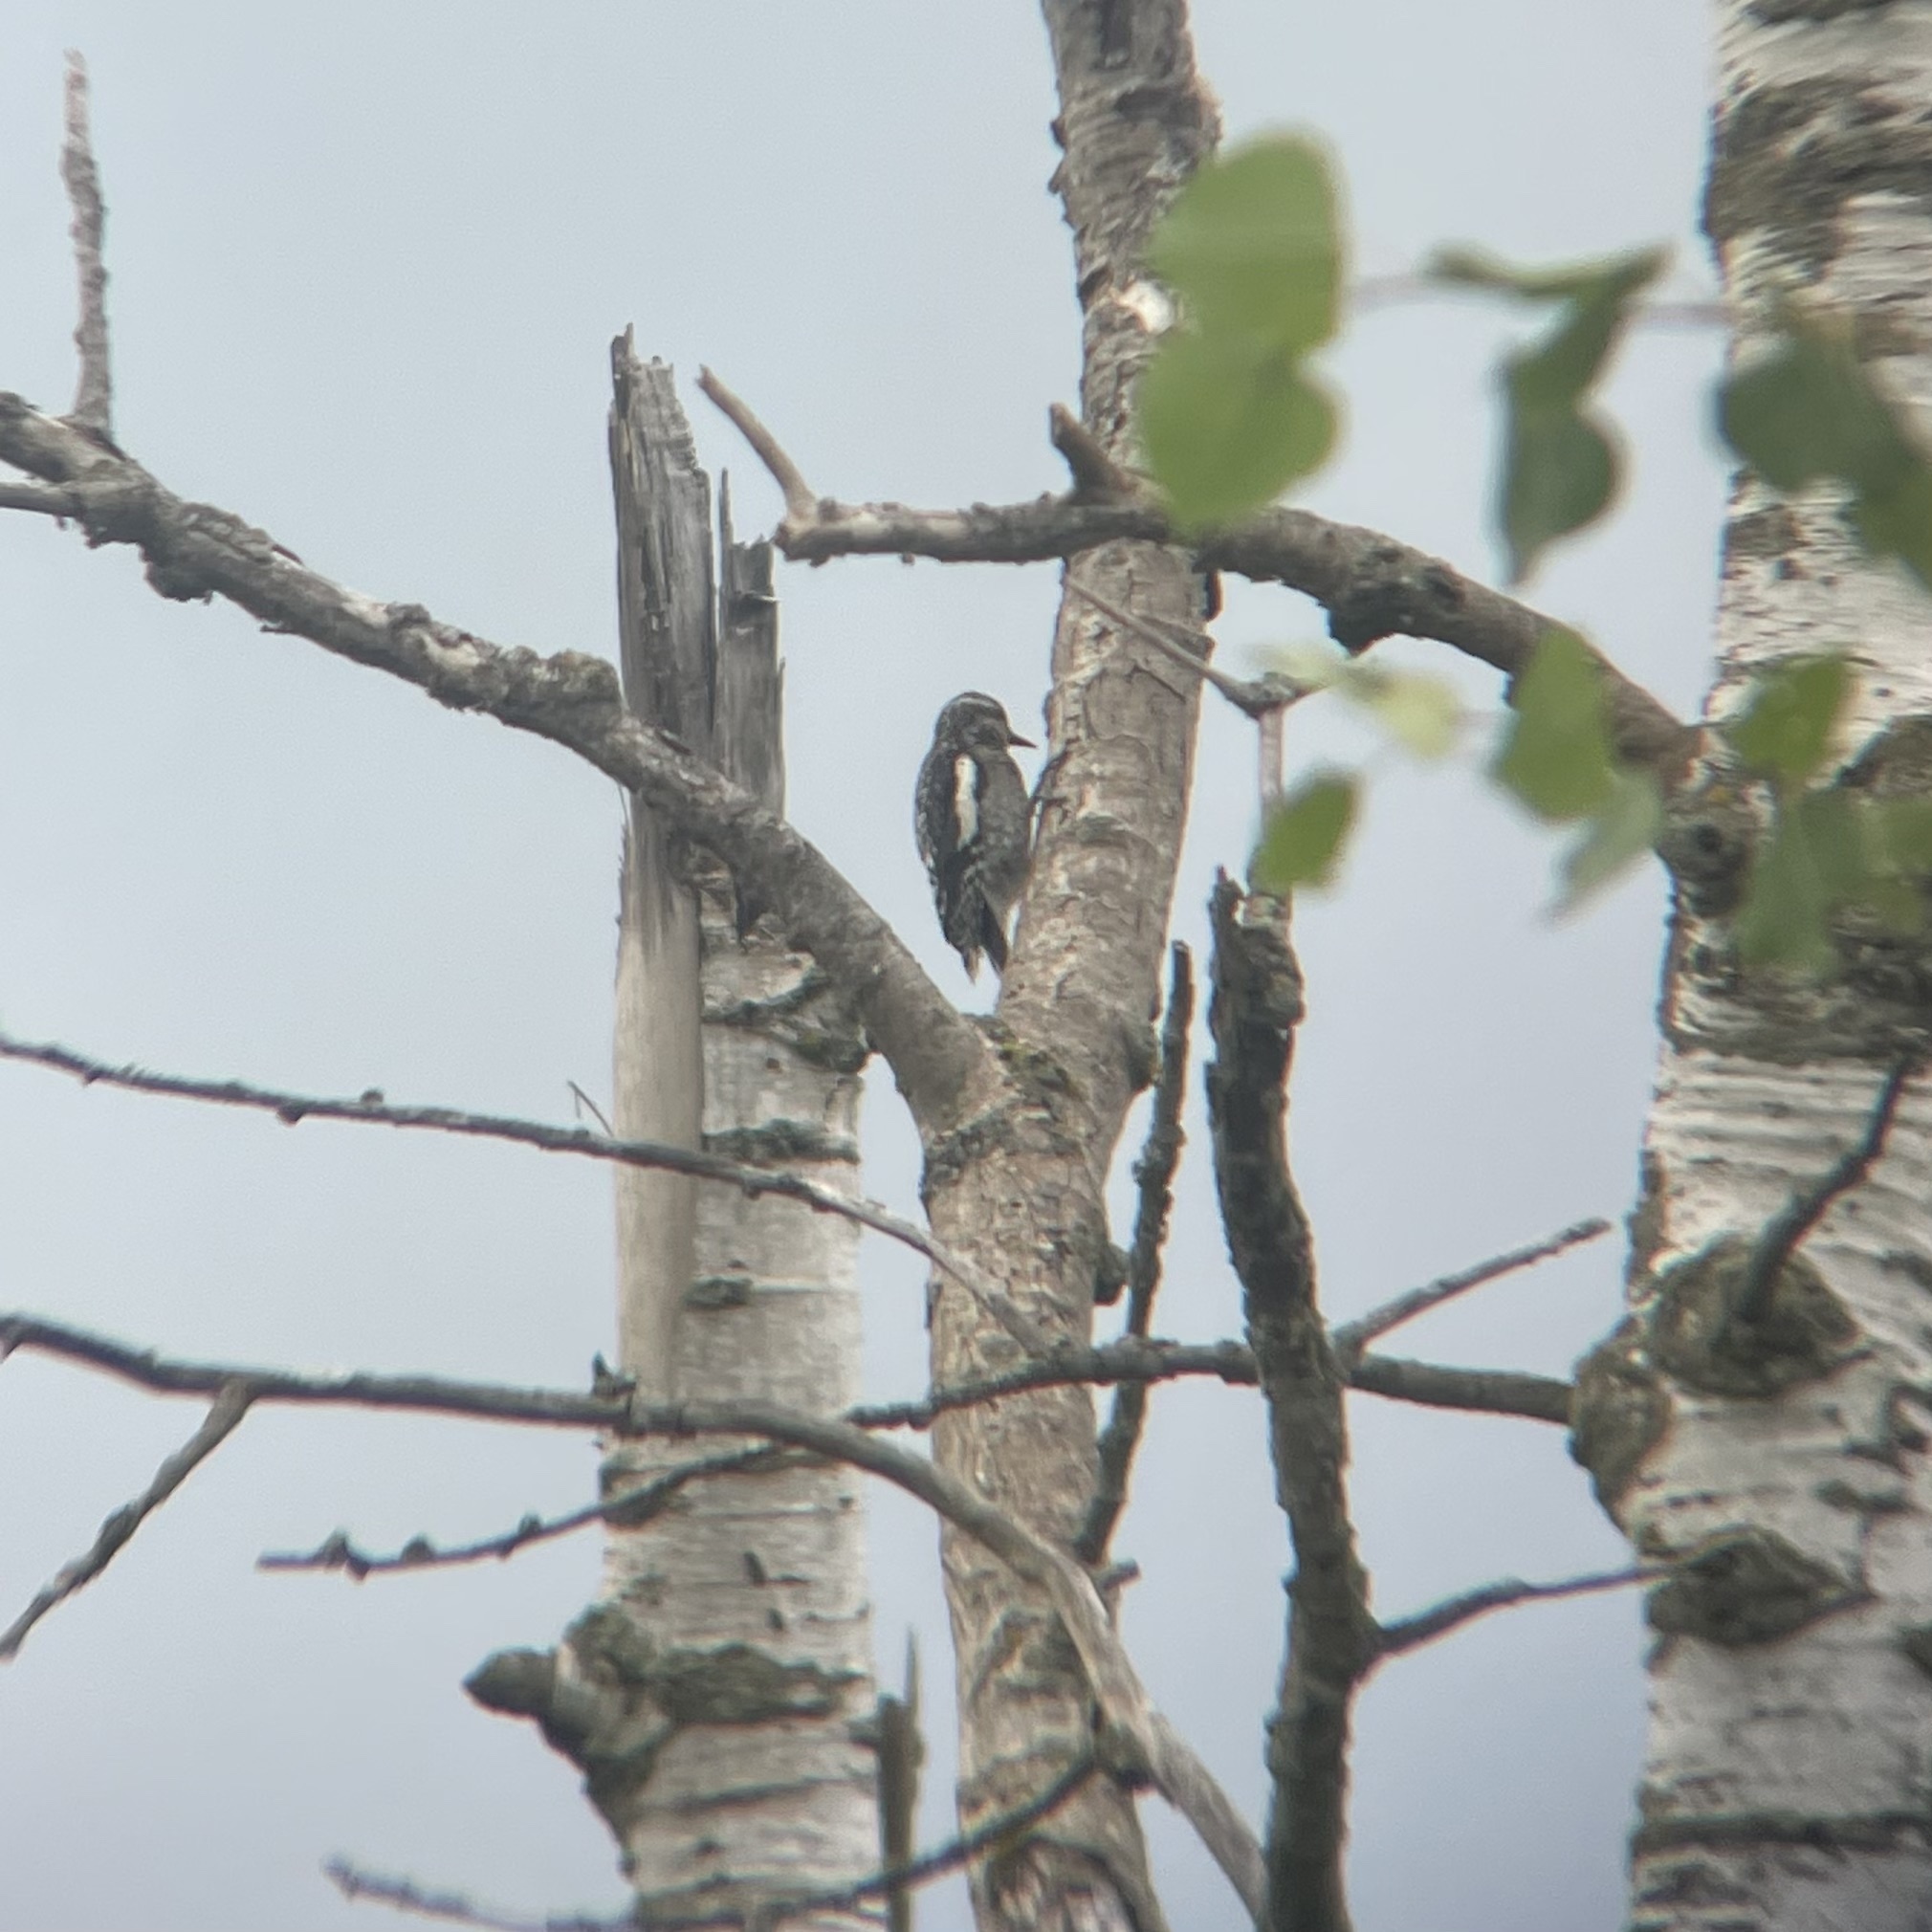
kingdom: Animalia
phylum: Chordata
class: Aves
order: Piciformes
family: Picidae
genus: Sphyrapicus
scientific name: Sphyrapicus varius
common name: Yellow-bellied sapsucker
